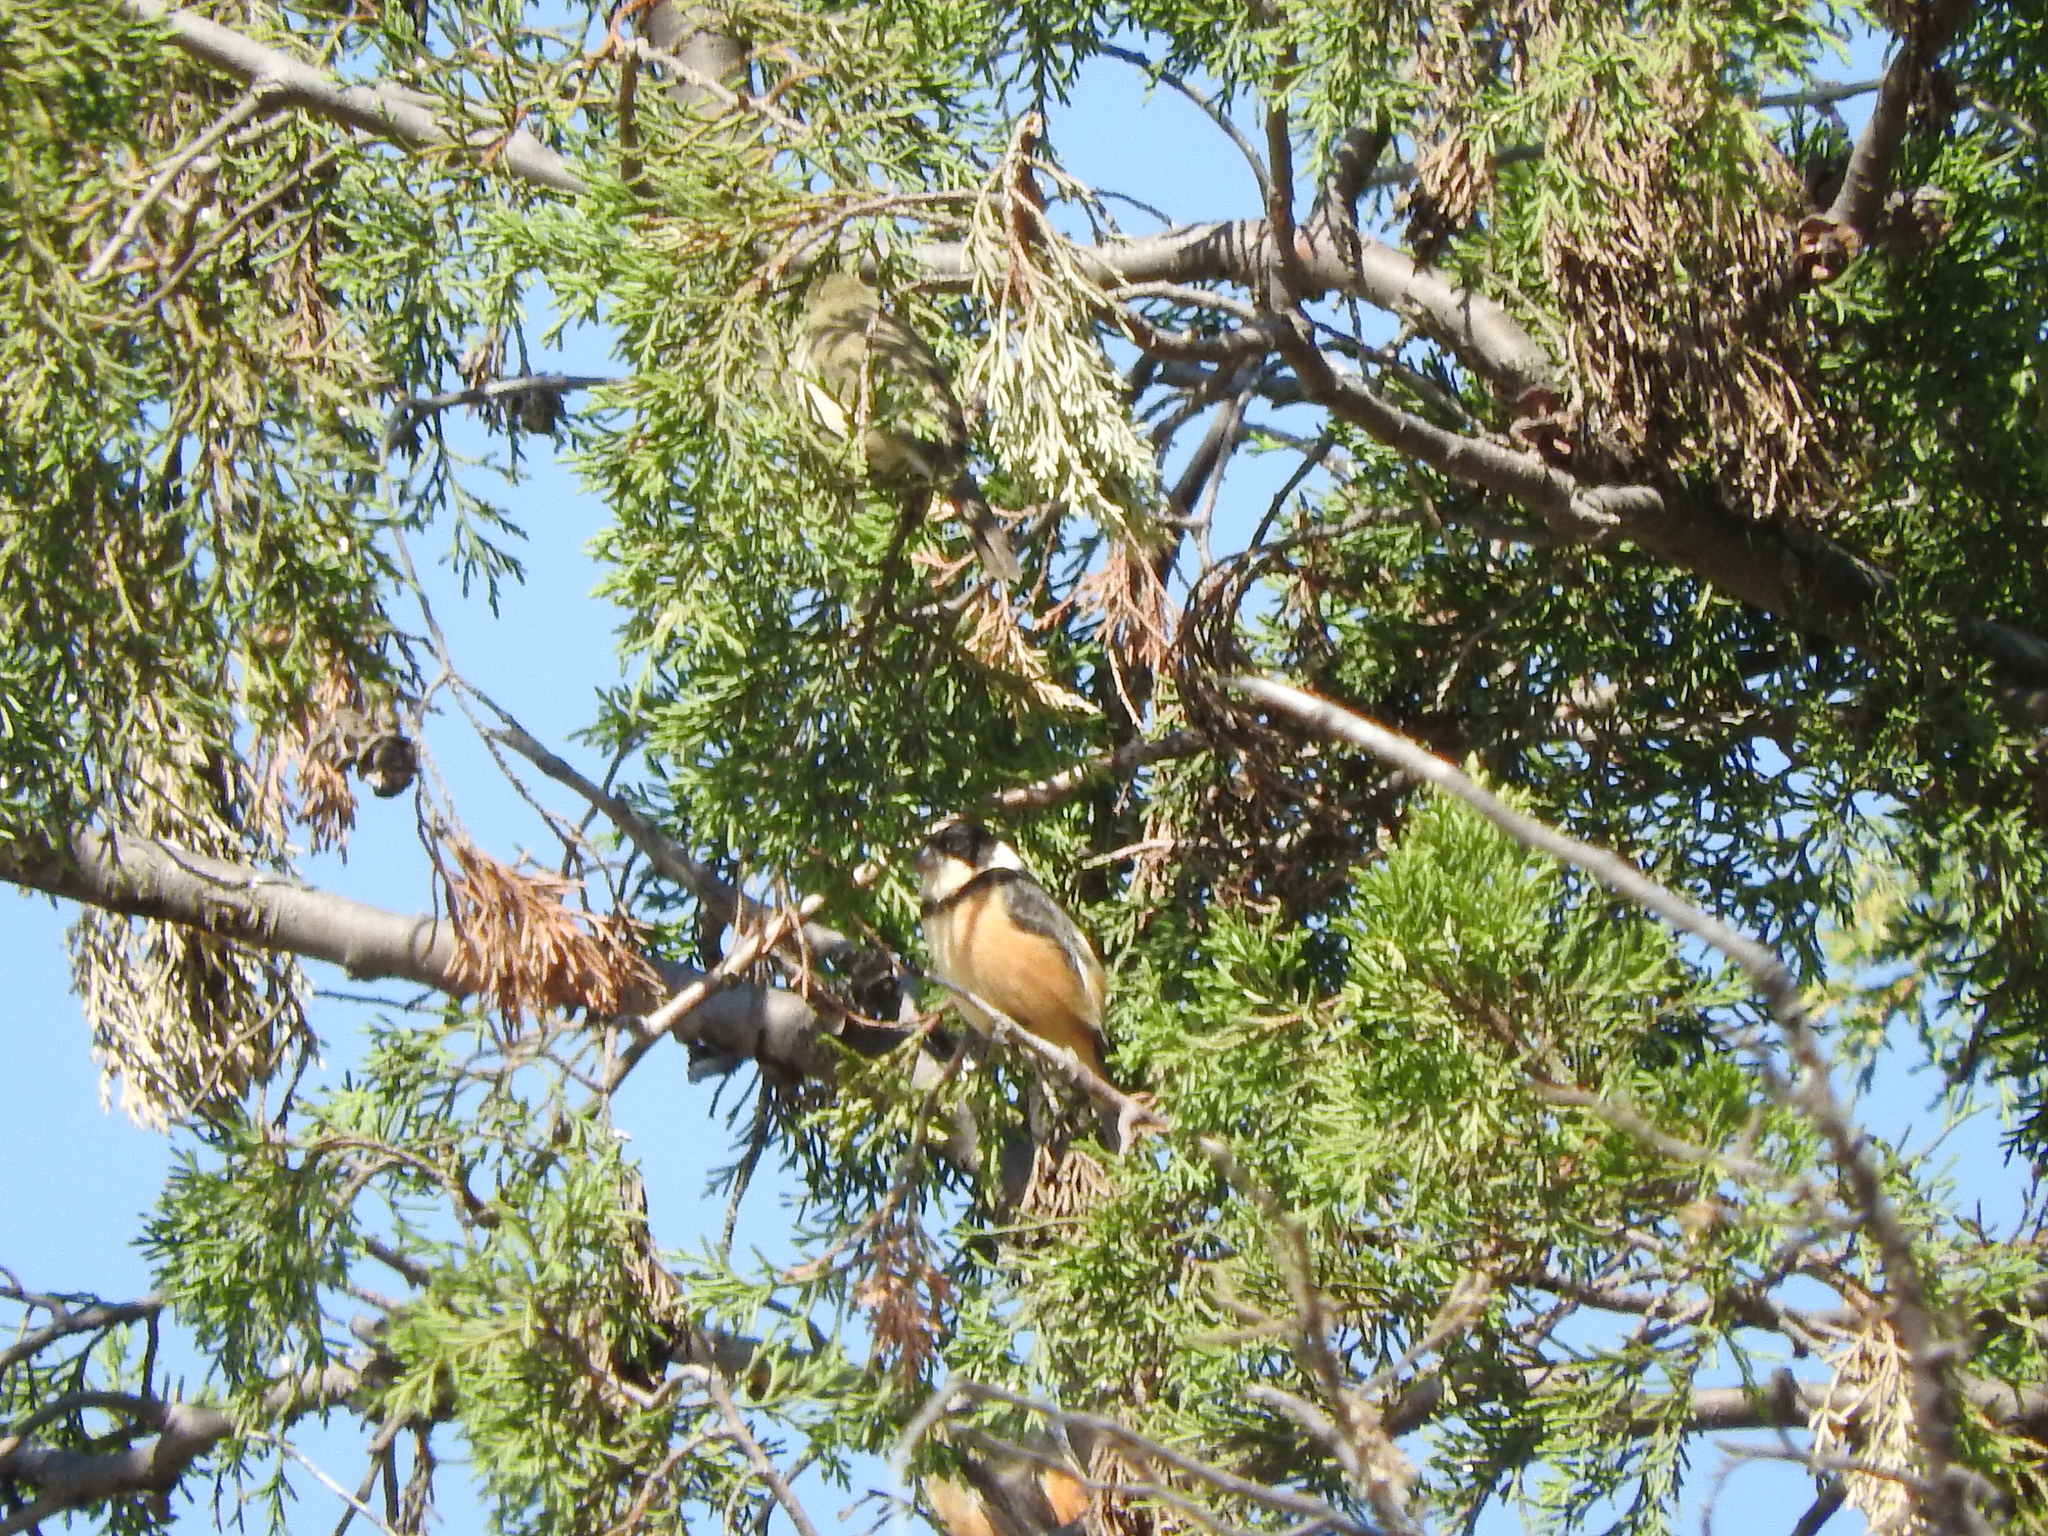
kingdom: Animalia
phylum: Chordata
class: Aves
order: Passeriformes
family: Thraupidae
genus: Sporophila
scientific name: Sporophila torqueola
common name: White-collared seedeater
